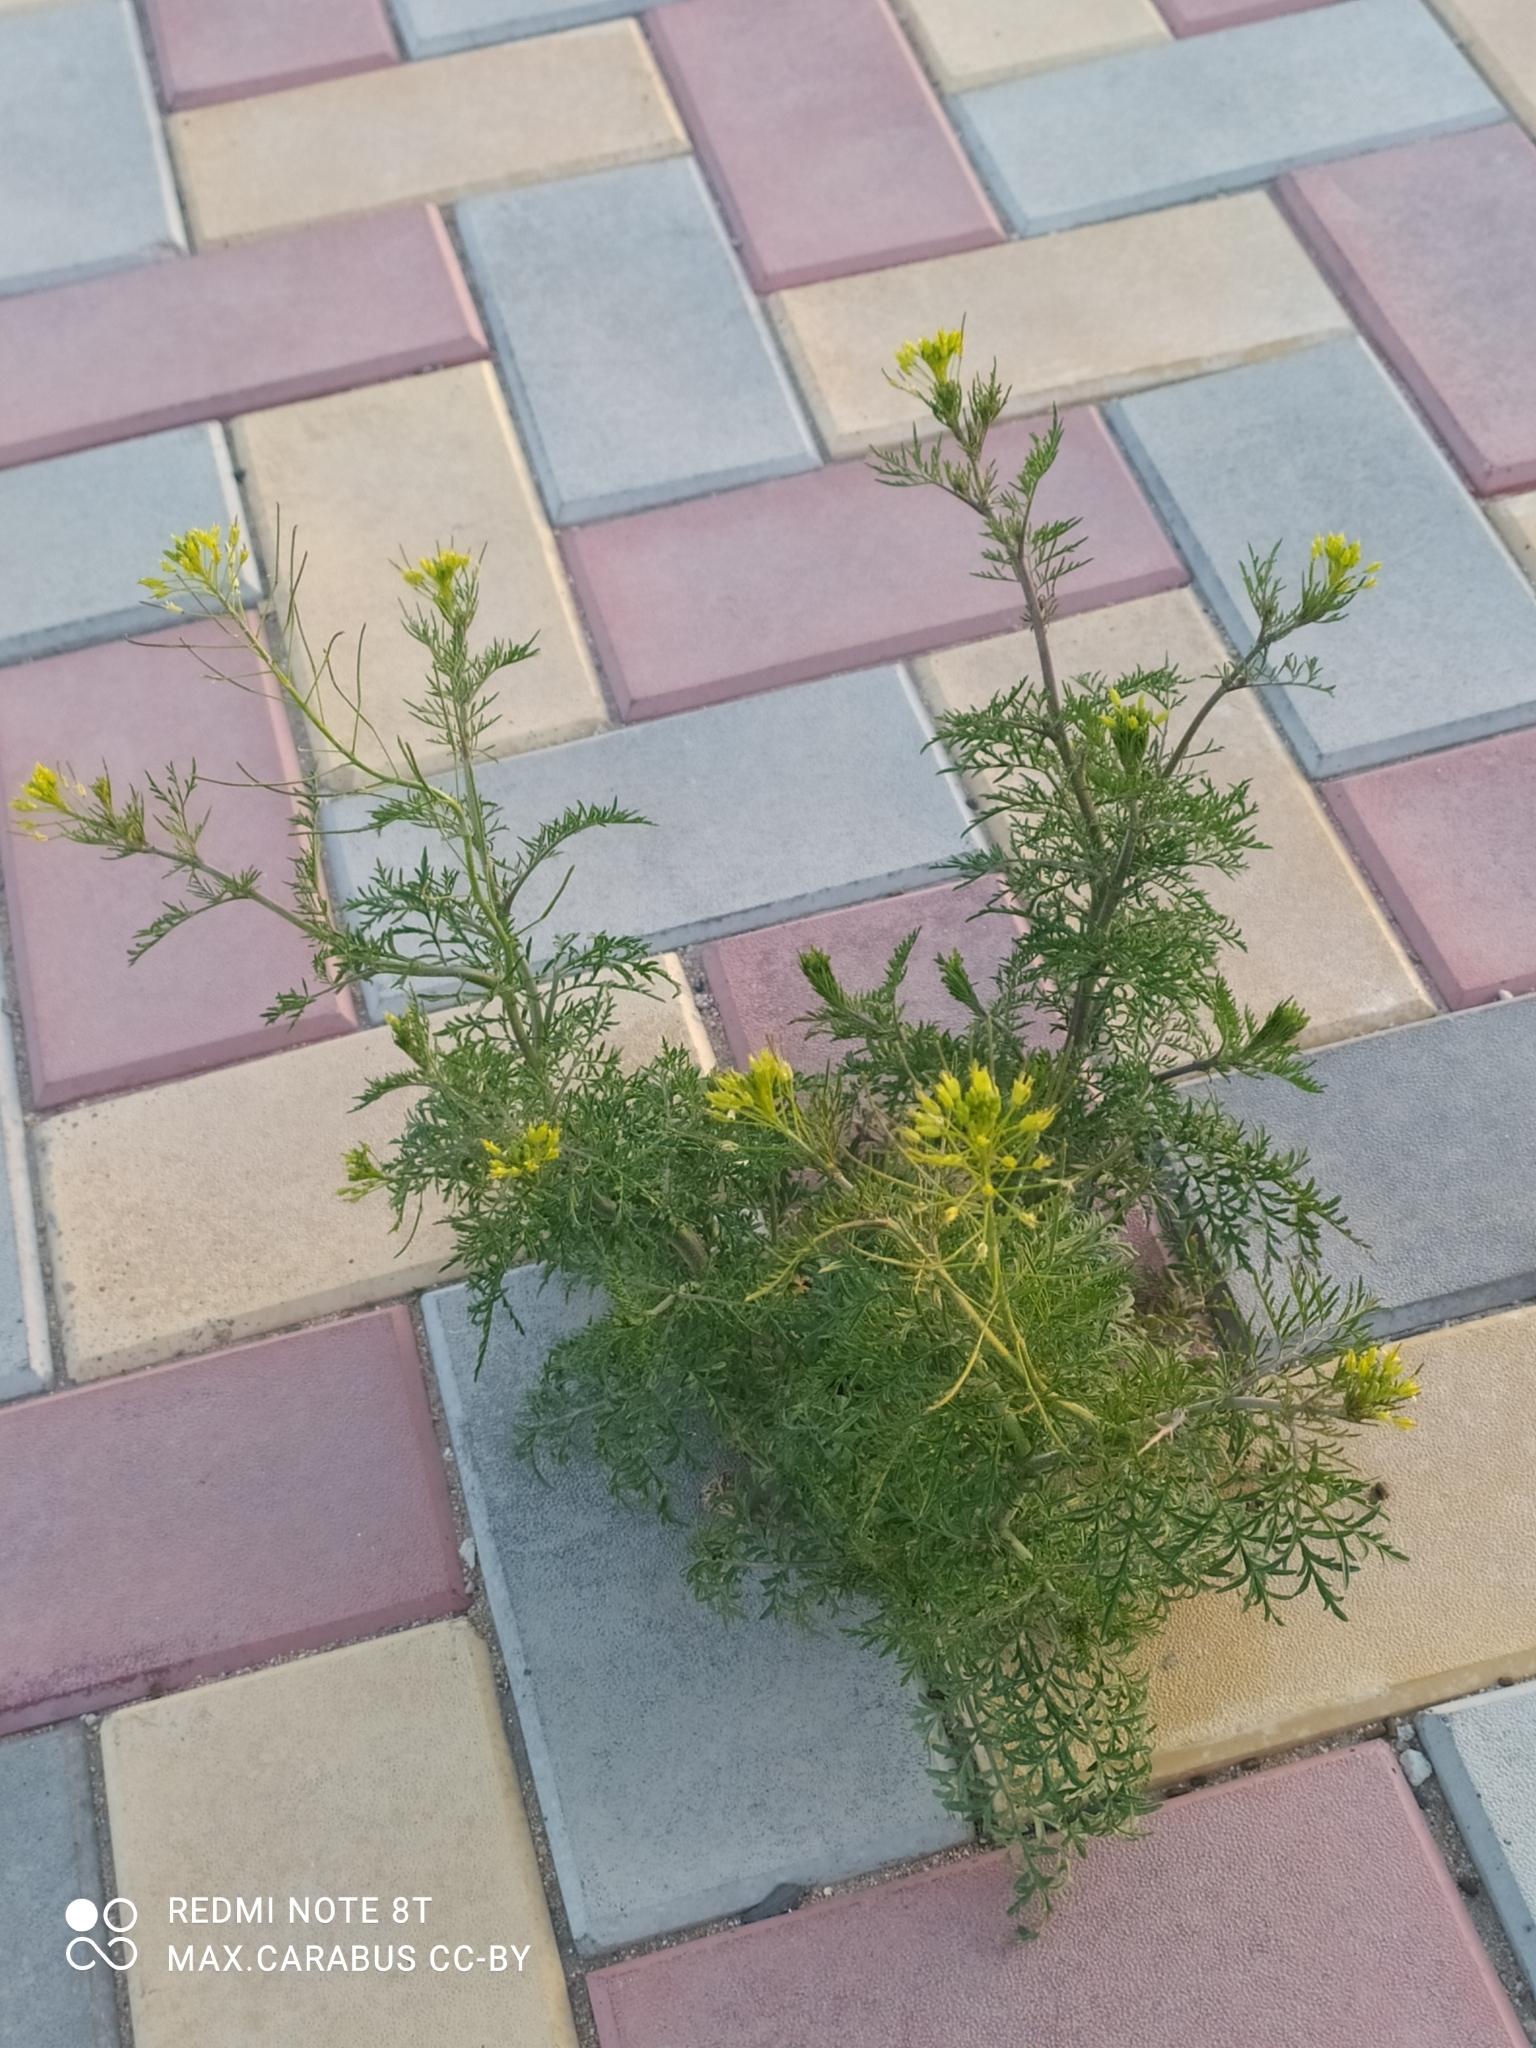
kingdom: Plantae
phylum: Tracheophyta
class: Magnoliopsida
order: Brassicales
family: Brassicaceae
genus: Descurainia
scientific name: Descurainia sophia
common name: Flixweed
